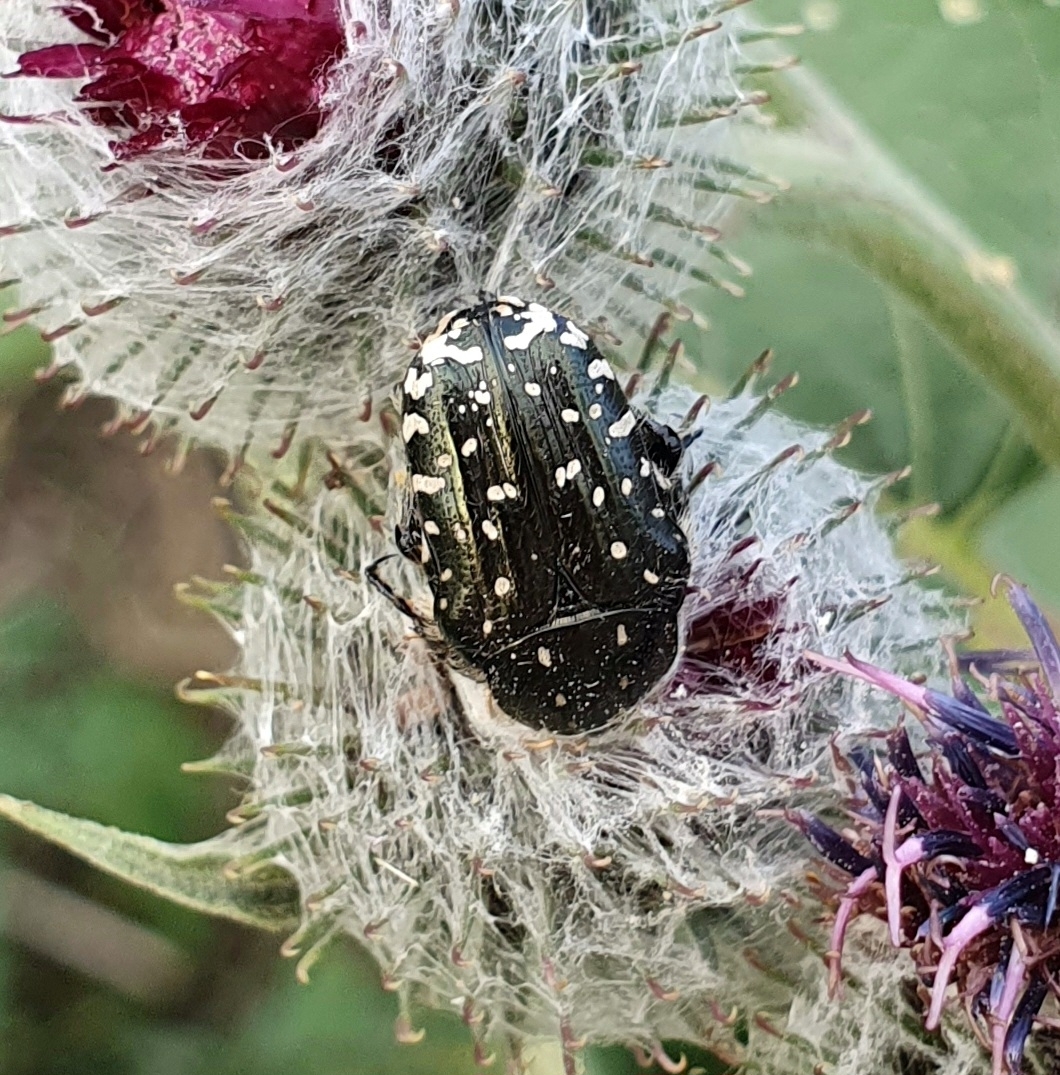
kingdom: Animalia
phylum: Arthropoda
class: Insecta
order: Coleoptera
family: Scarabaeidae
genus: Oxythyrea
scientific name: Oxythyrea funesta
